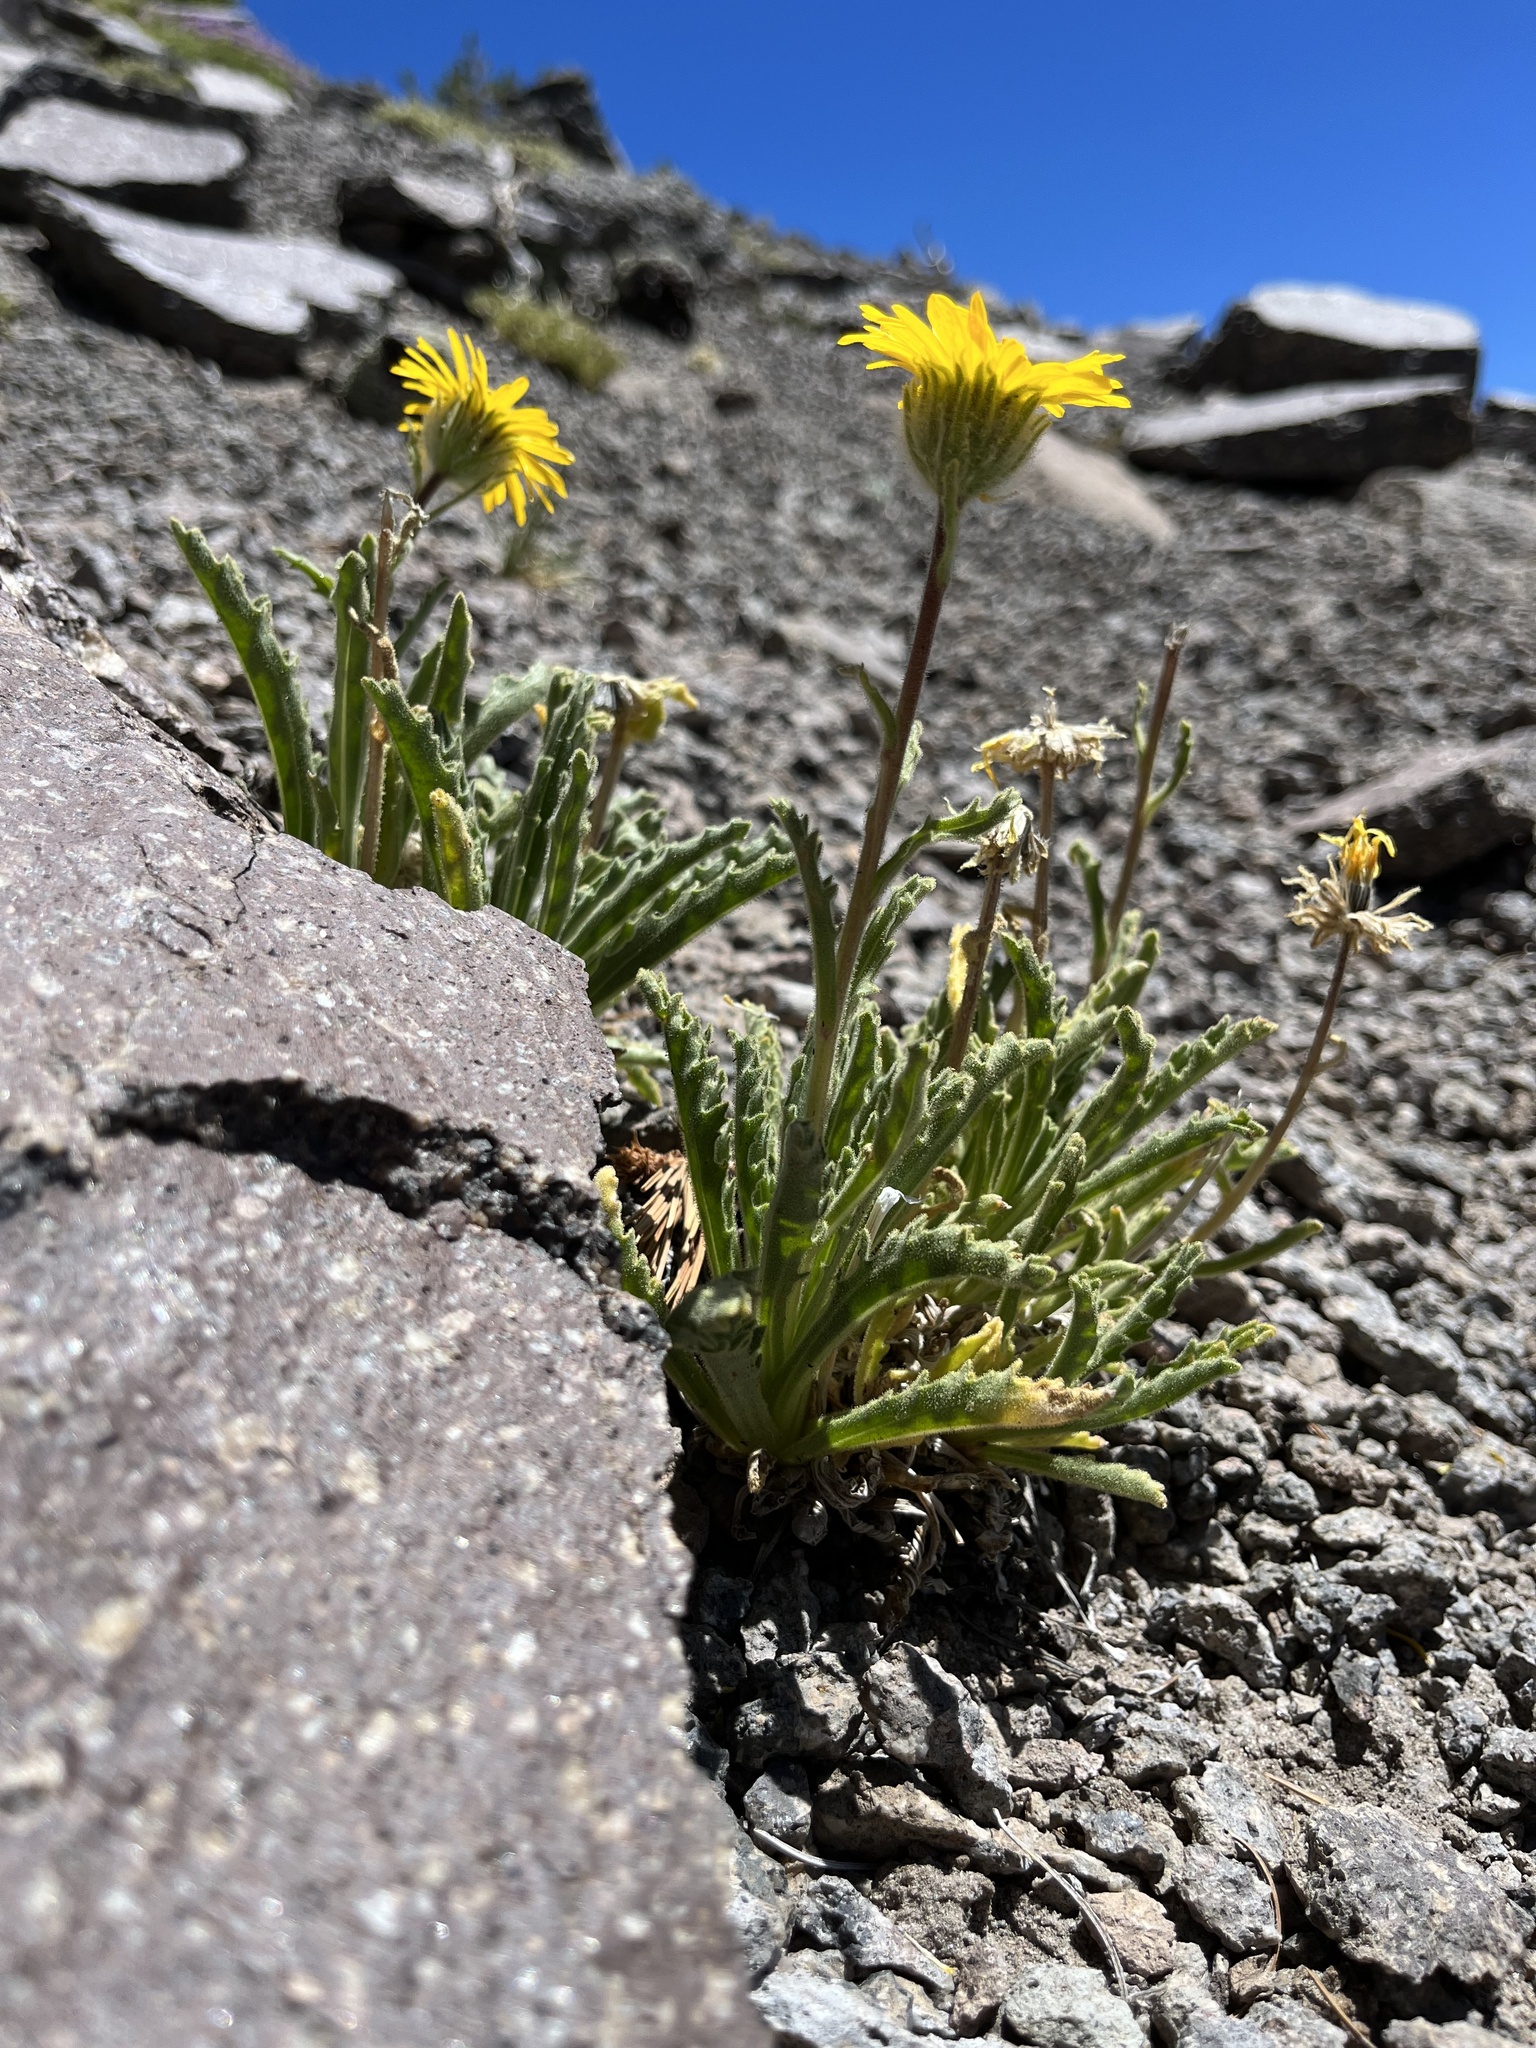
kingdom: Plantae
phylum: Tracheophyta
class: Magnoliopsida
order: Asterales
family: Asteraceae
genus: Hulsea
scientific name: Hulsea algida
